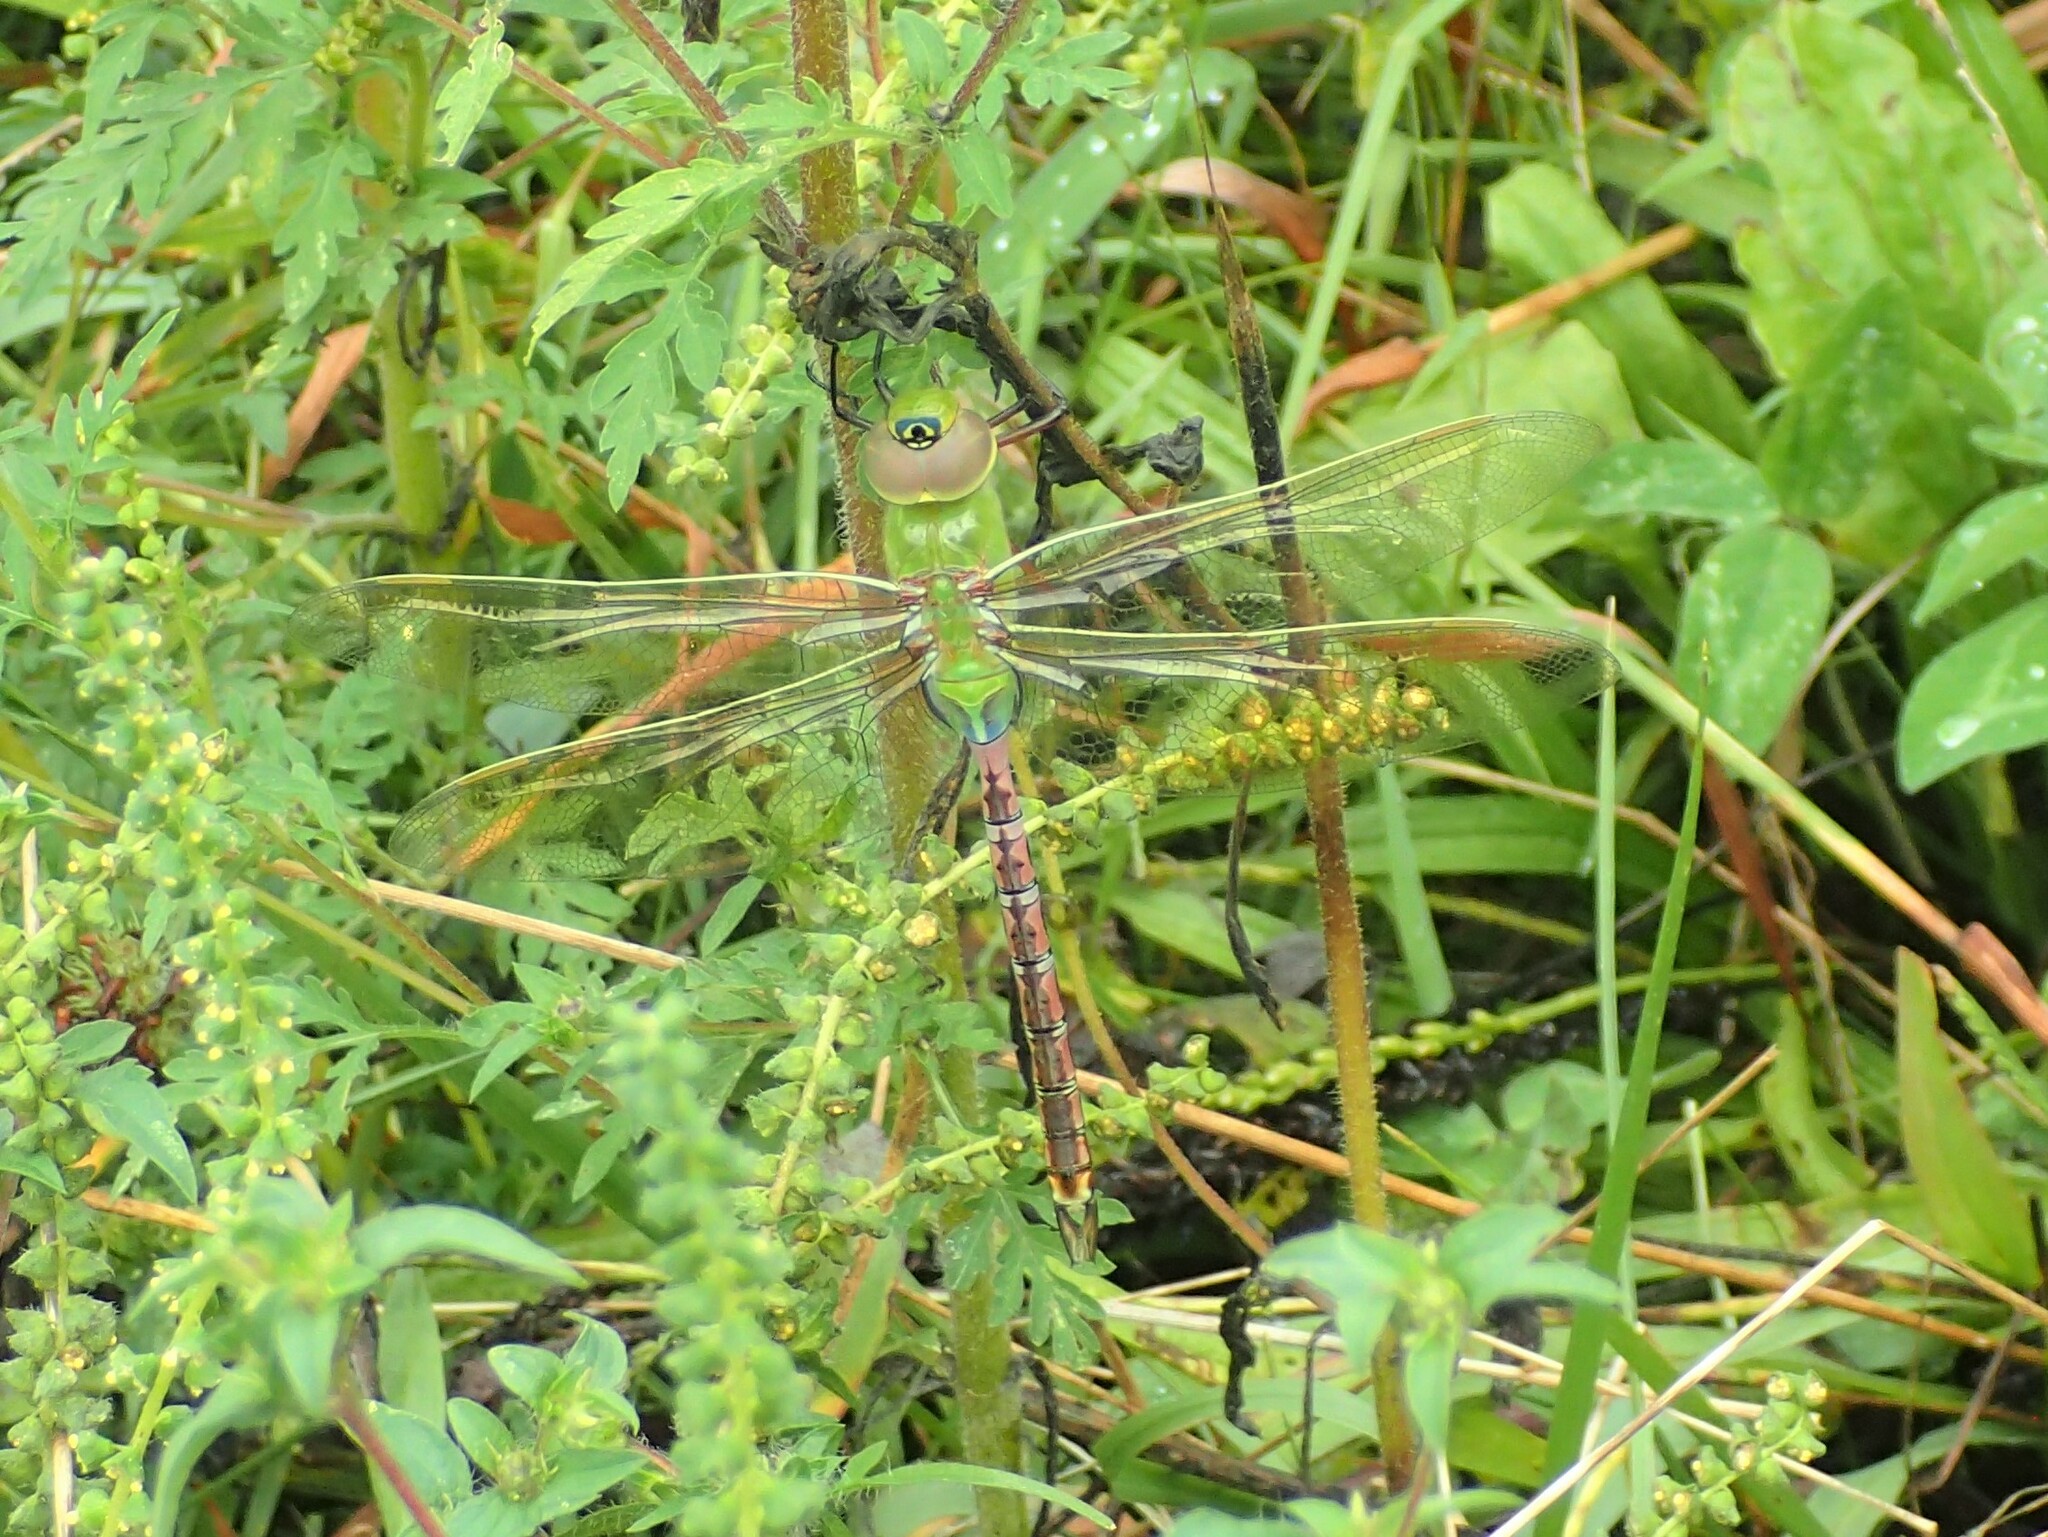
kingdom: Animalia
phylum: Arthropoda
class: Insecta
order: Odonata
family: Aeshnidae
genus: Anax
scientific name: Anax junius
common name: Common green darner
